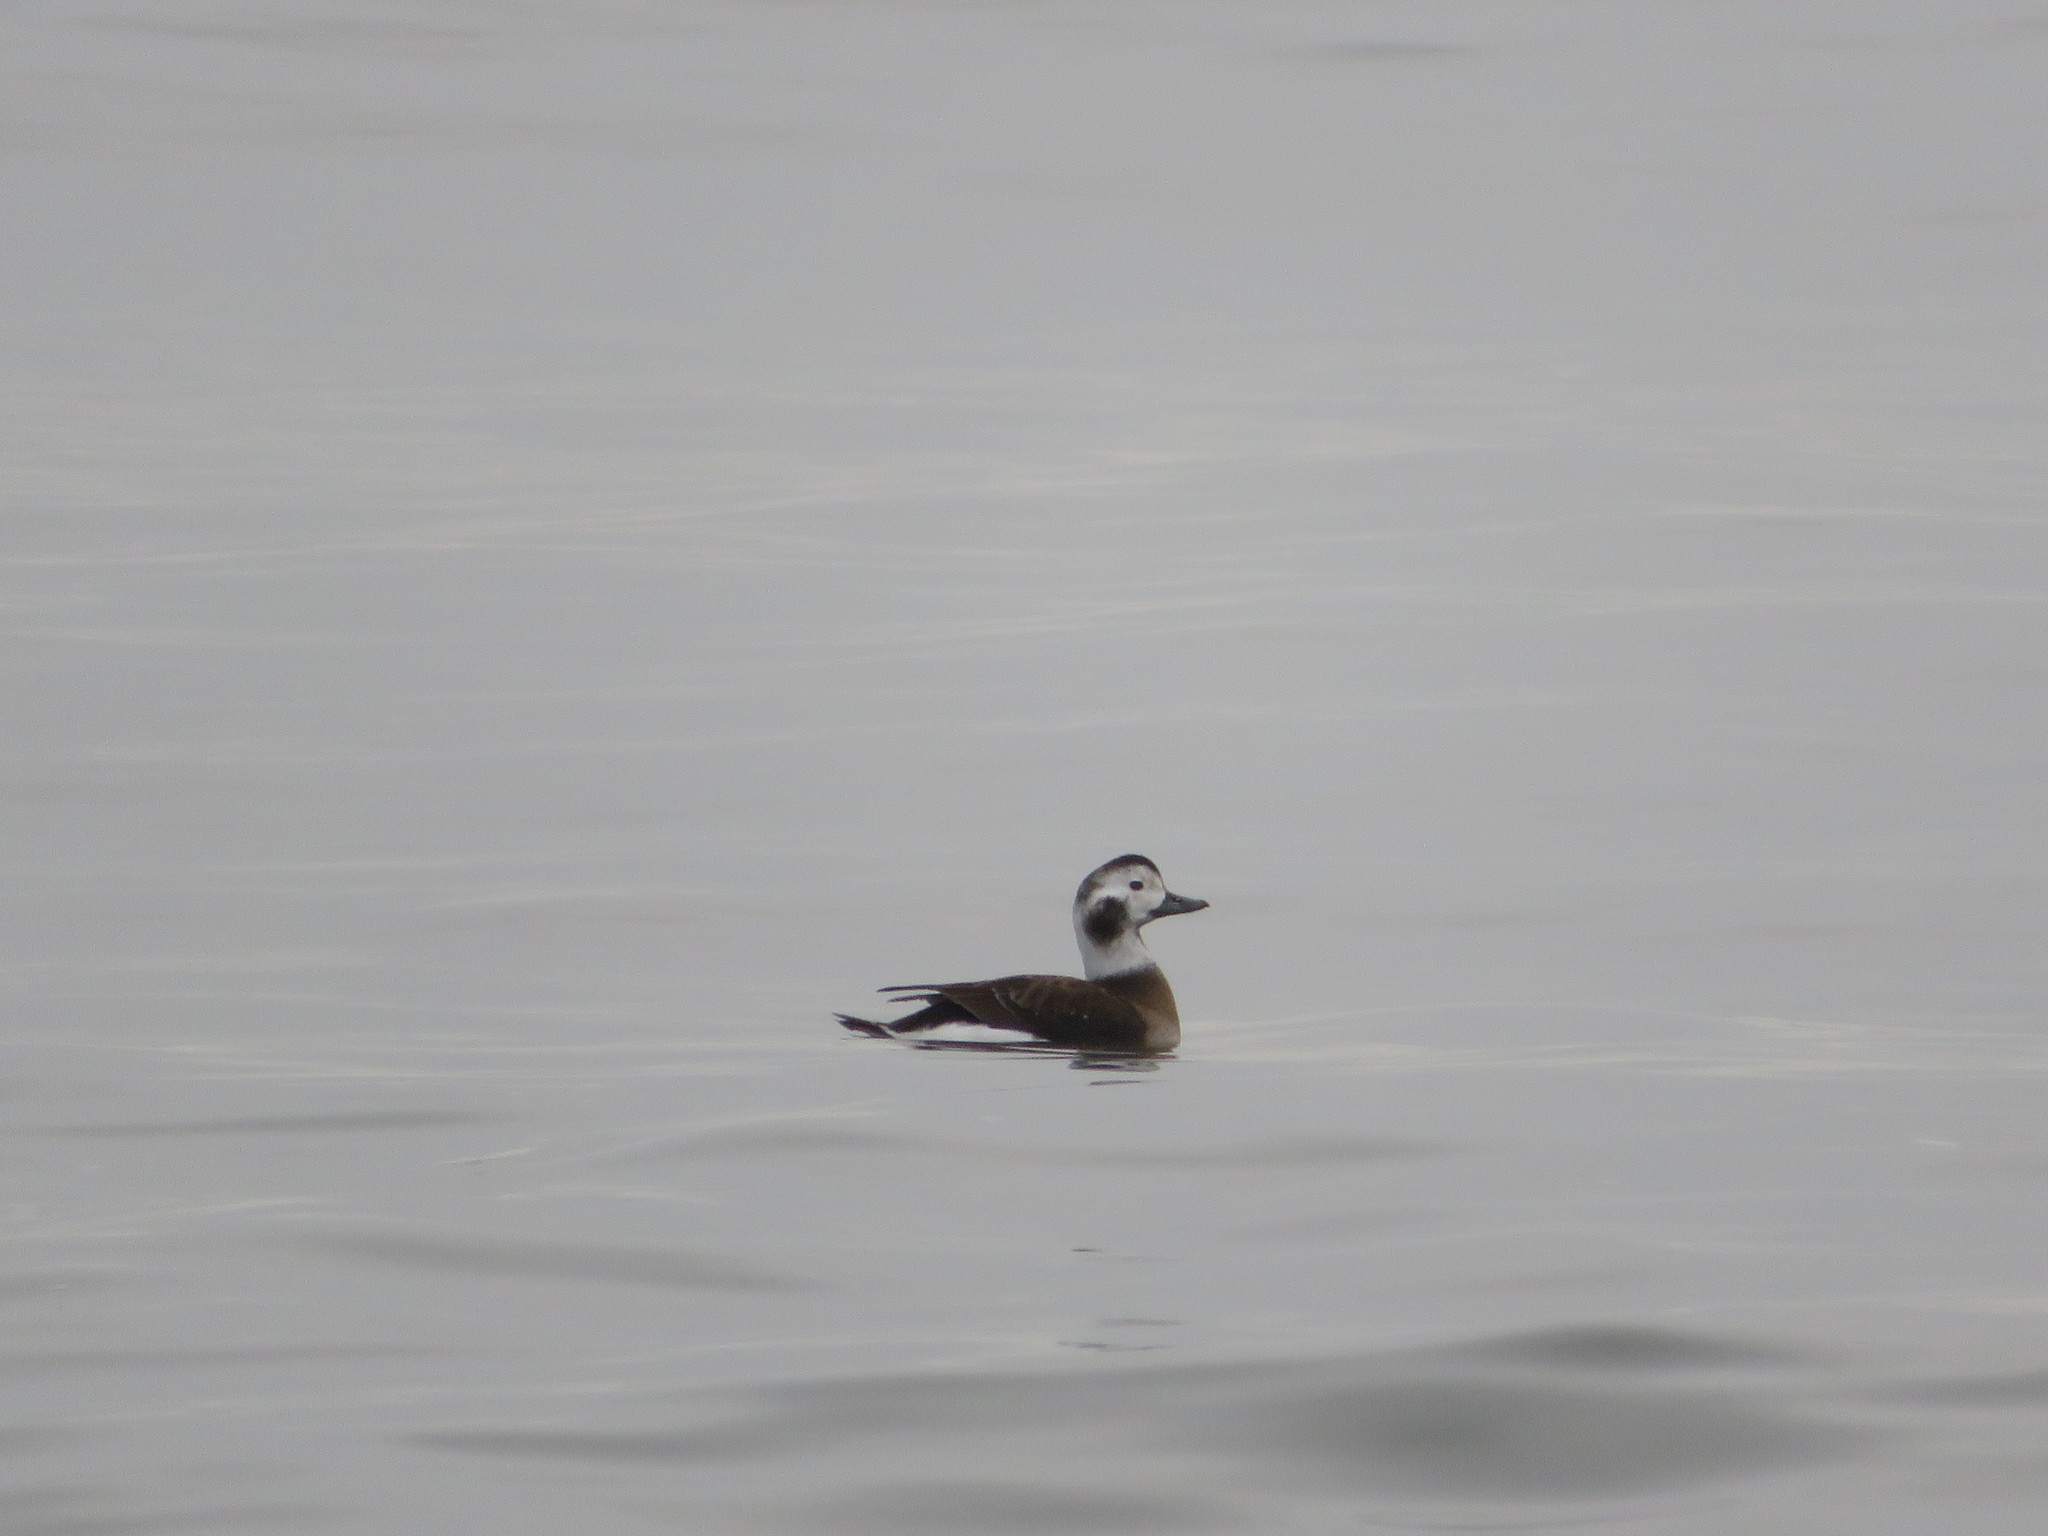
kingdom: Animalia
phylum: Chordata
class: Aves
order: Anseriformes
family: Anatidae
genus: Clangula
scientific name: Clangula hyemalis
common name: Long-tailed duck
